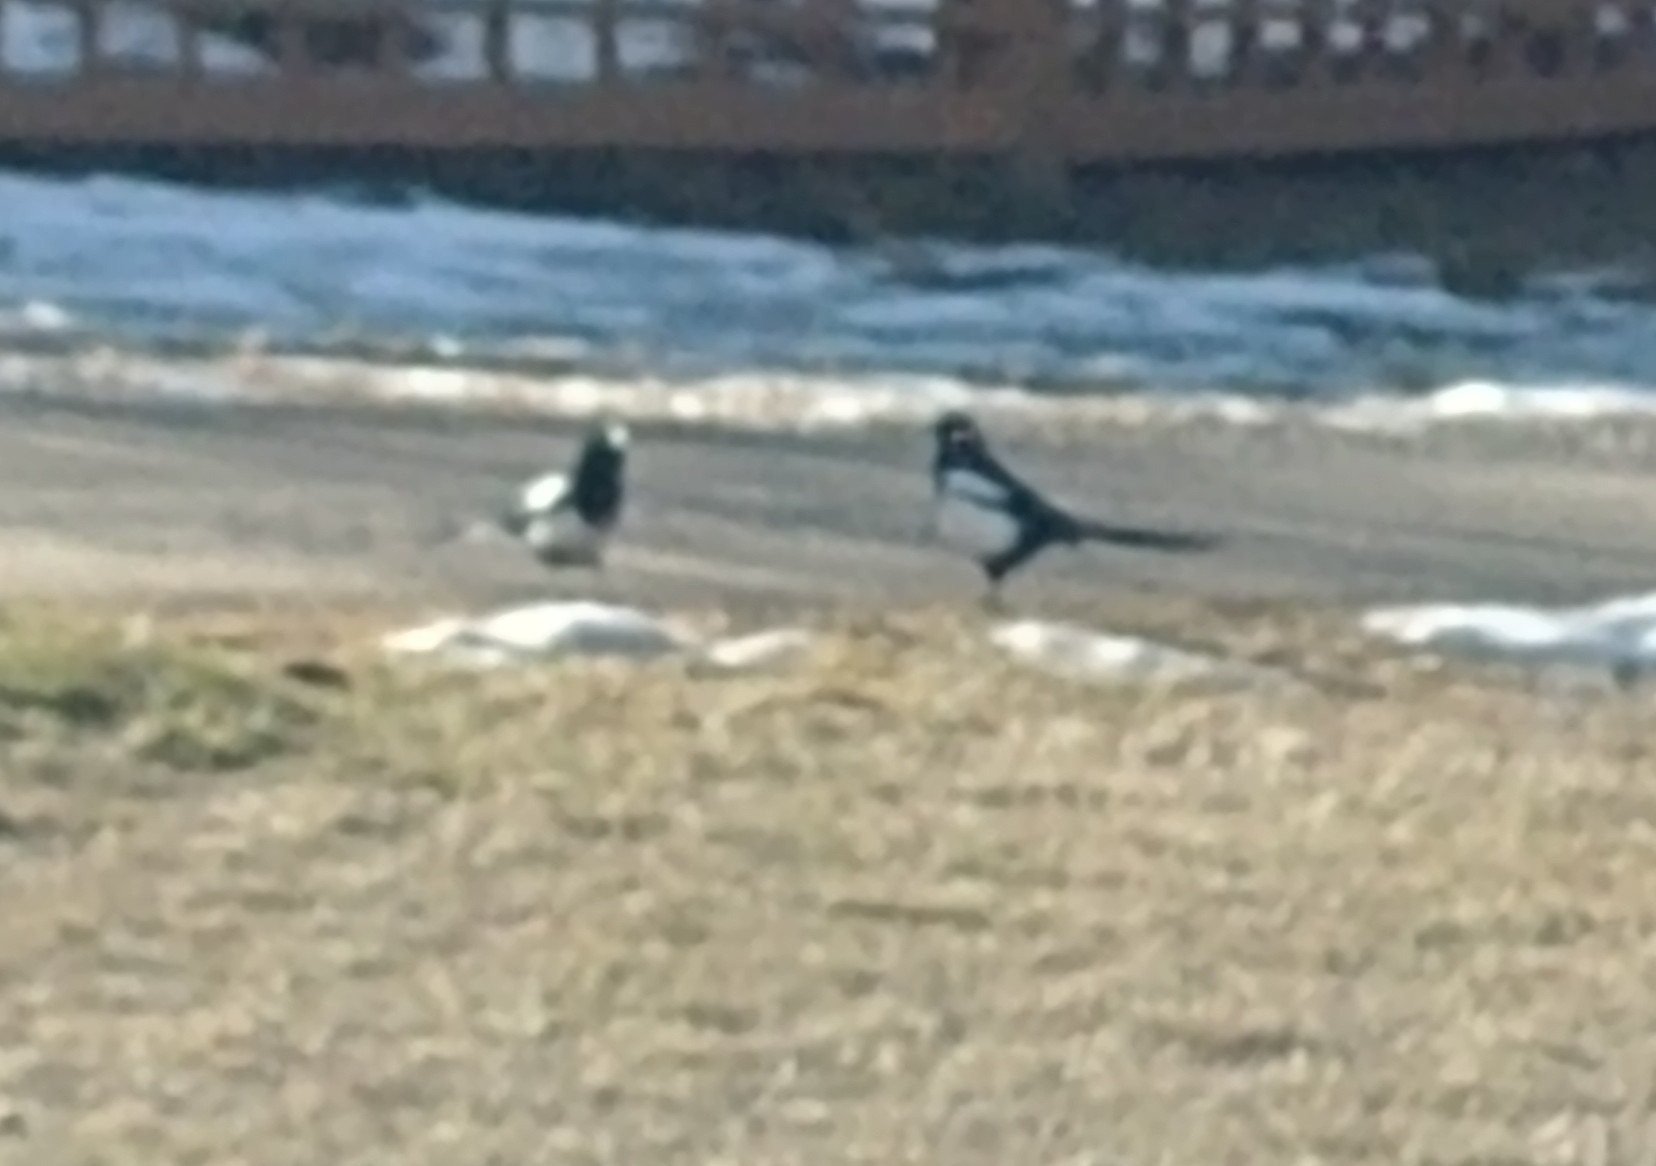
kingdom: Animalia
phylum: Chordata
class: Aves
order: Passeriformes
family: Corvidae
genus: Pica
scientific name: Pica hudsonia
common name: Black-billed magpie
